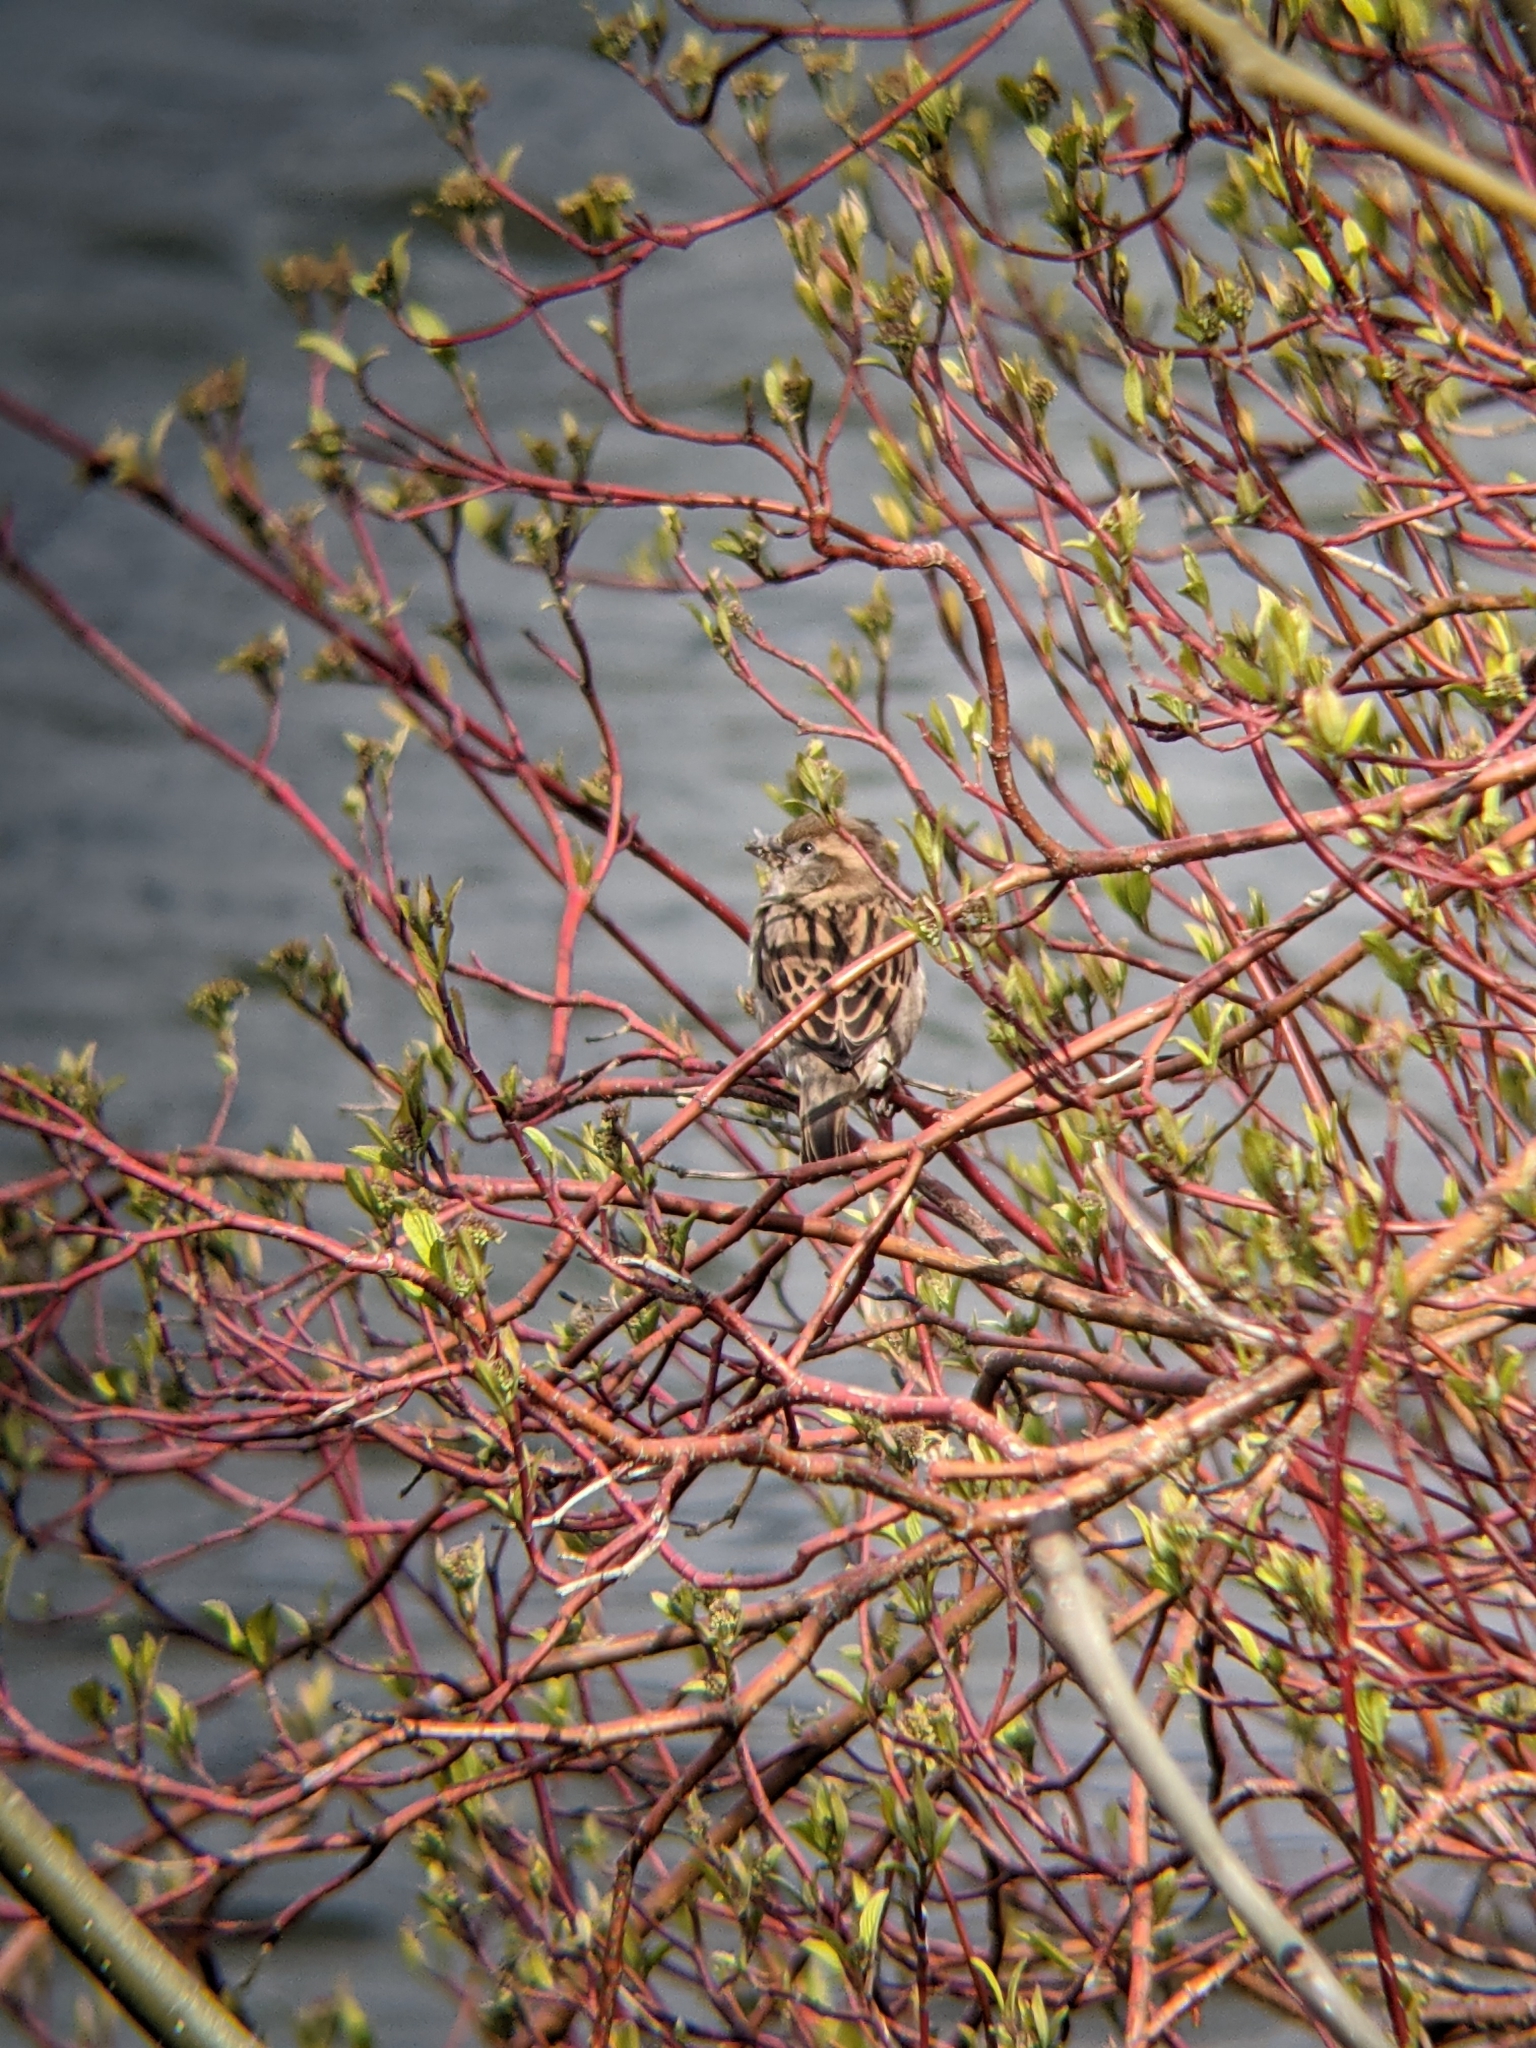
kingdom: Animalia
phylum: Chordata
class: Aves
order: Passeriformes
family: Passeridae
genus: Passer
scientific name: Passer domesticus
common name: House sparrow
